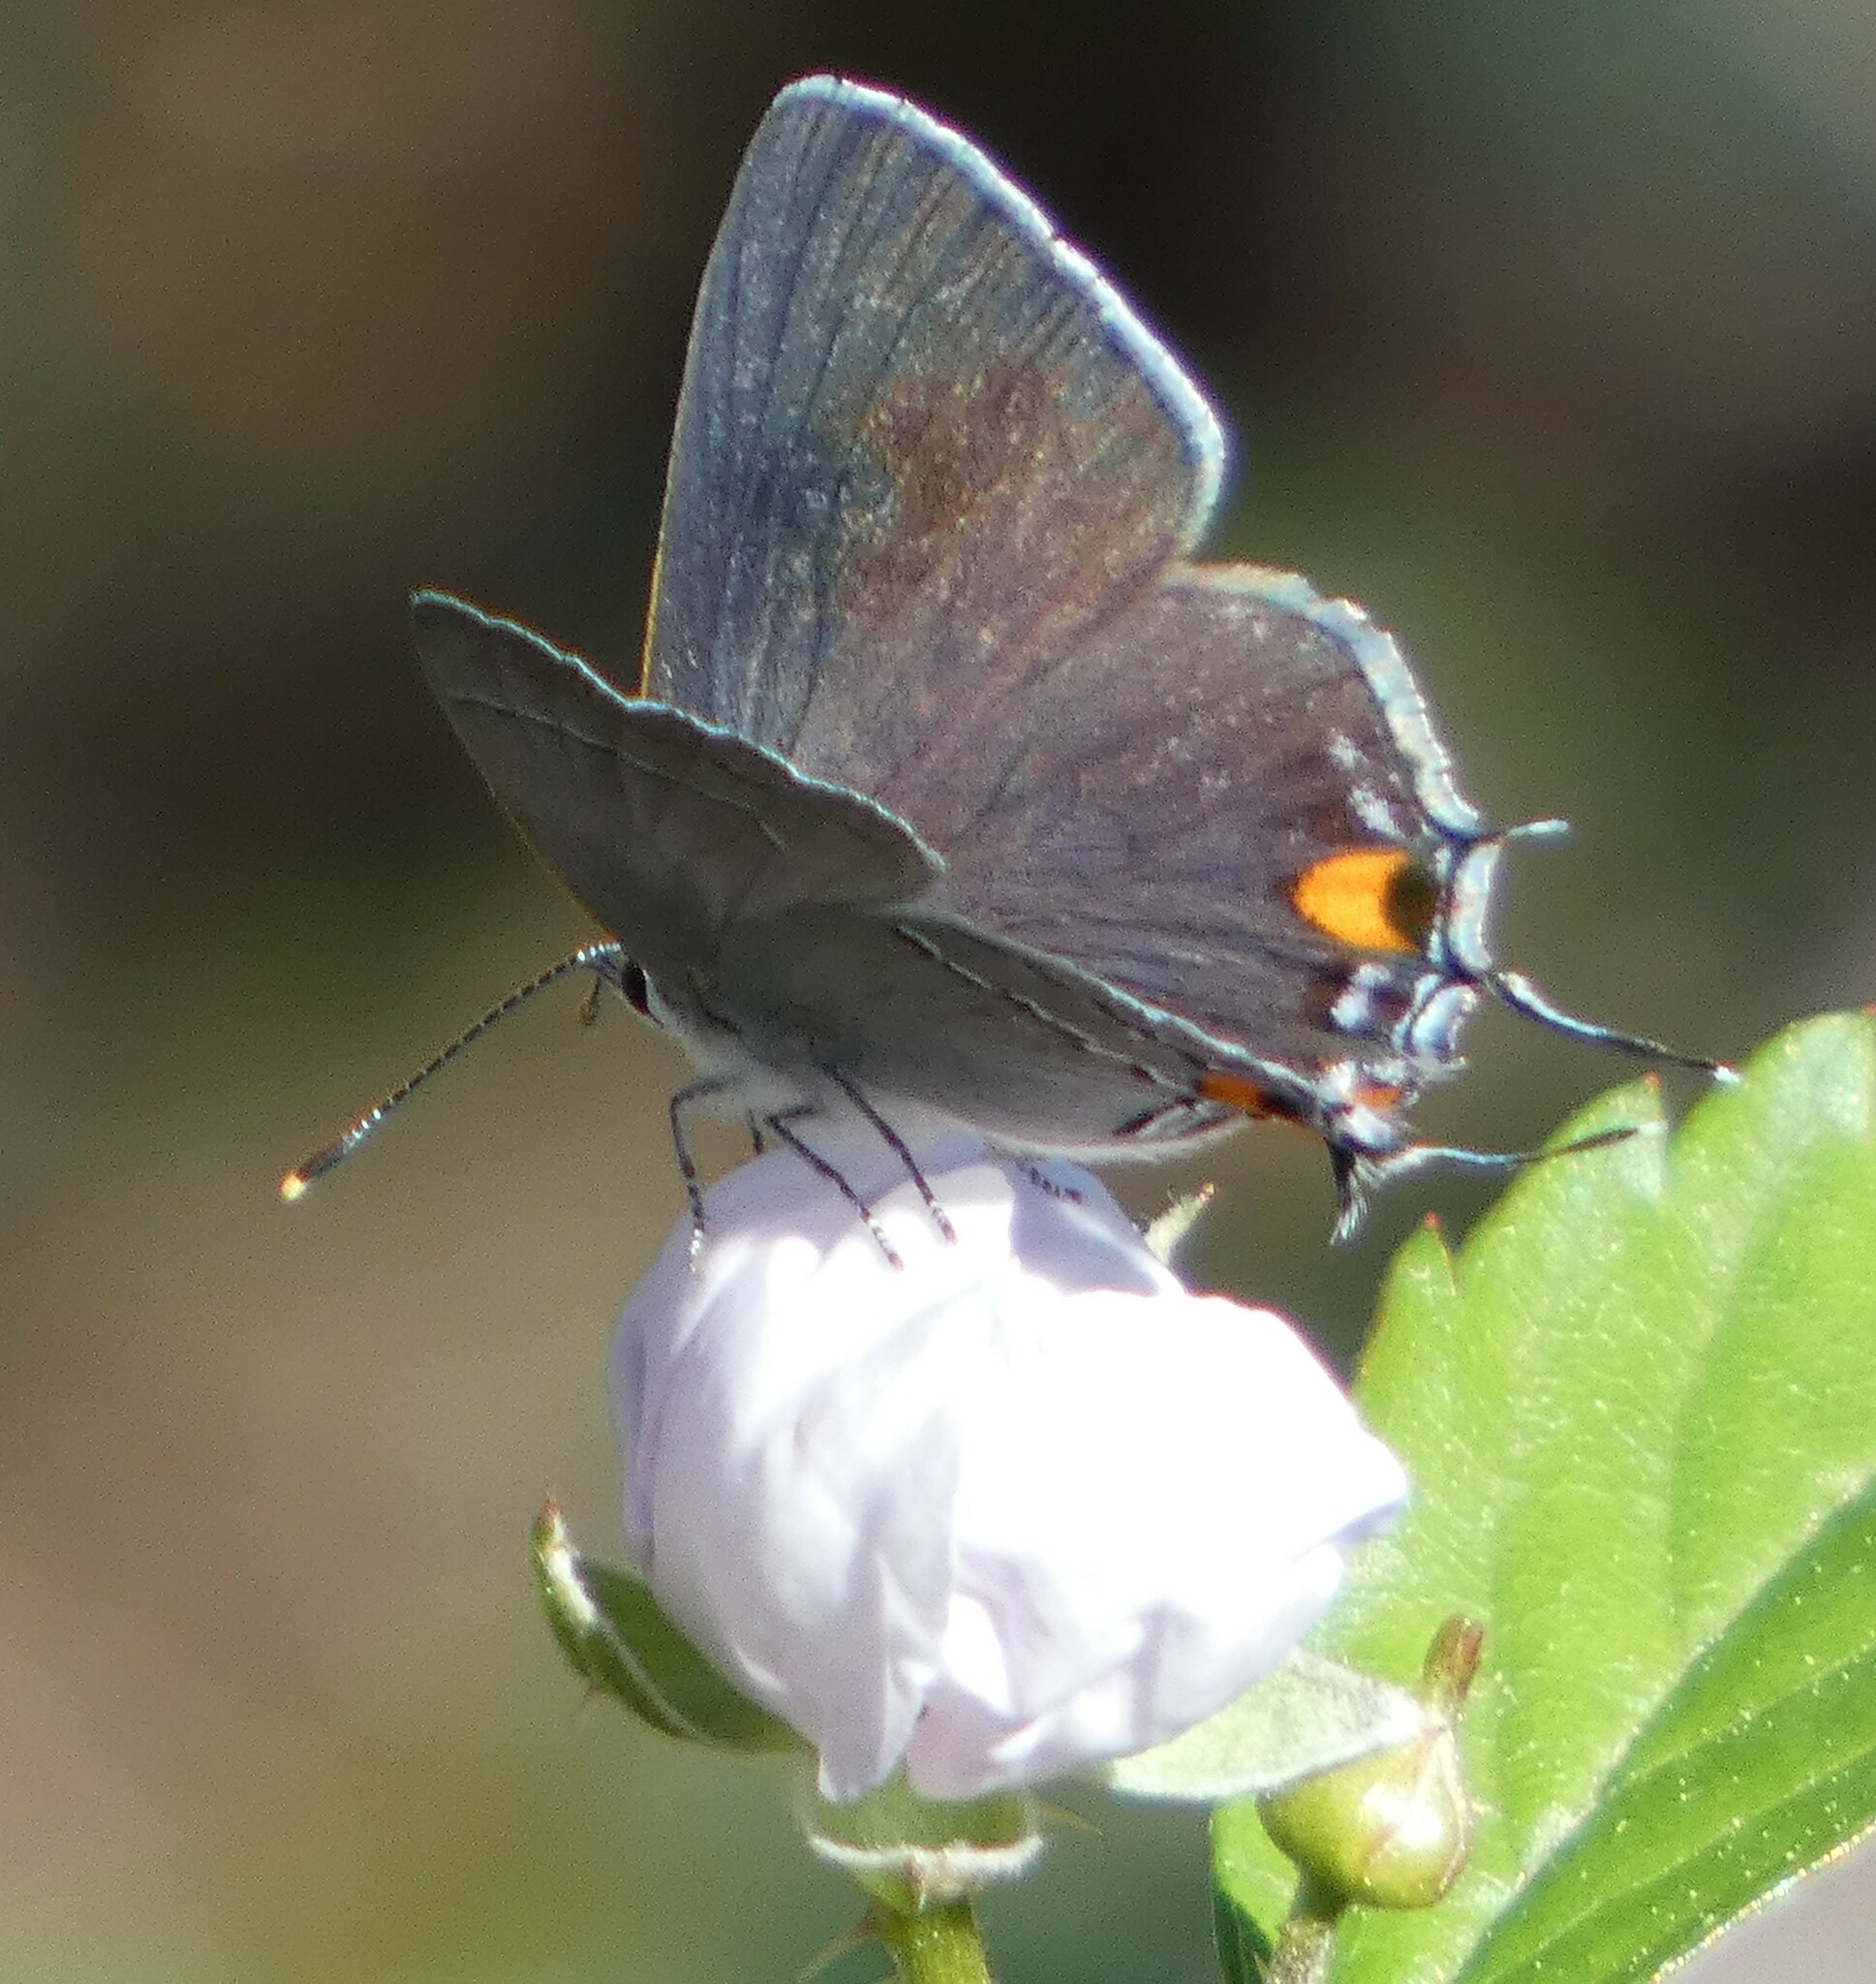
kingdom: Animalia
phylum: Arthropoda
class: Insecta
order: Lepidoptera
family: Lycaenidae
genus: Strymon
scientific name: Strymon melinus
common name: Gray hairstreak
